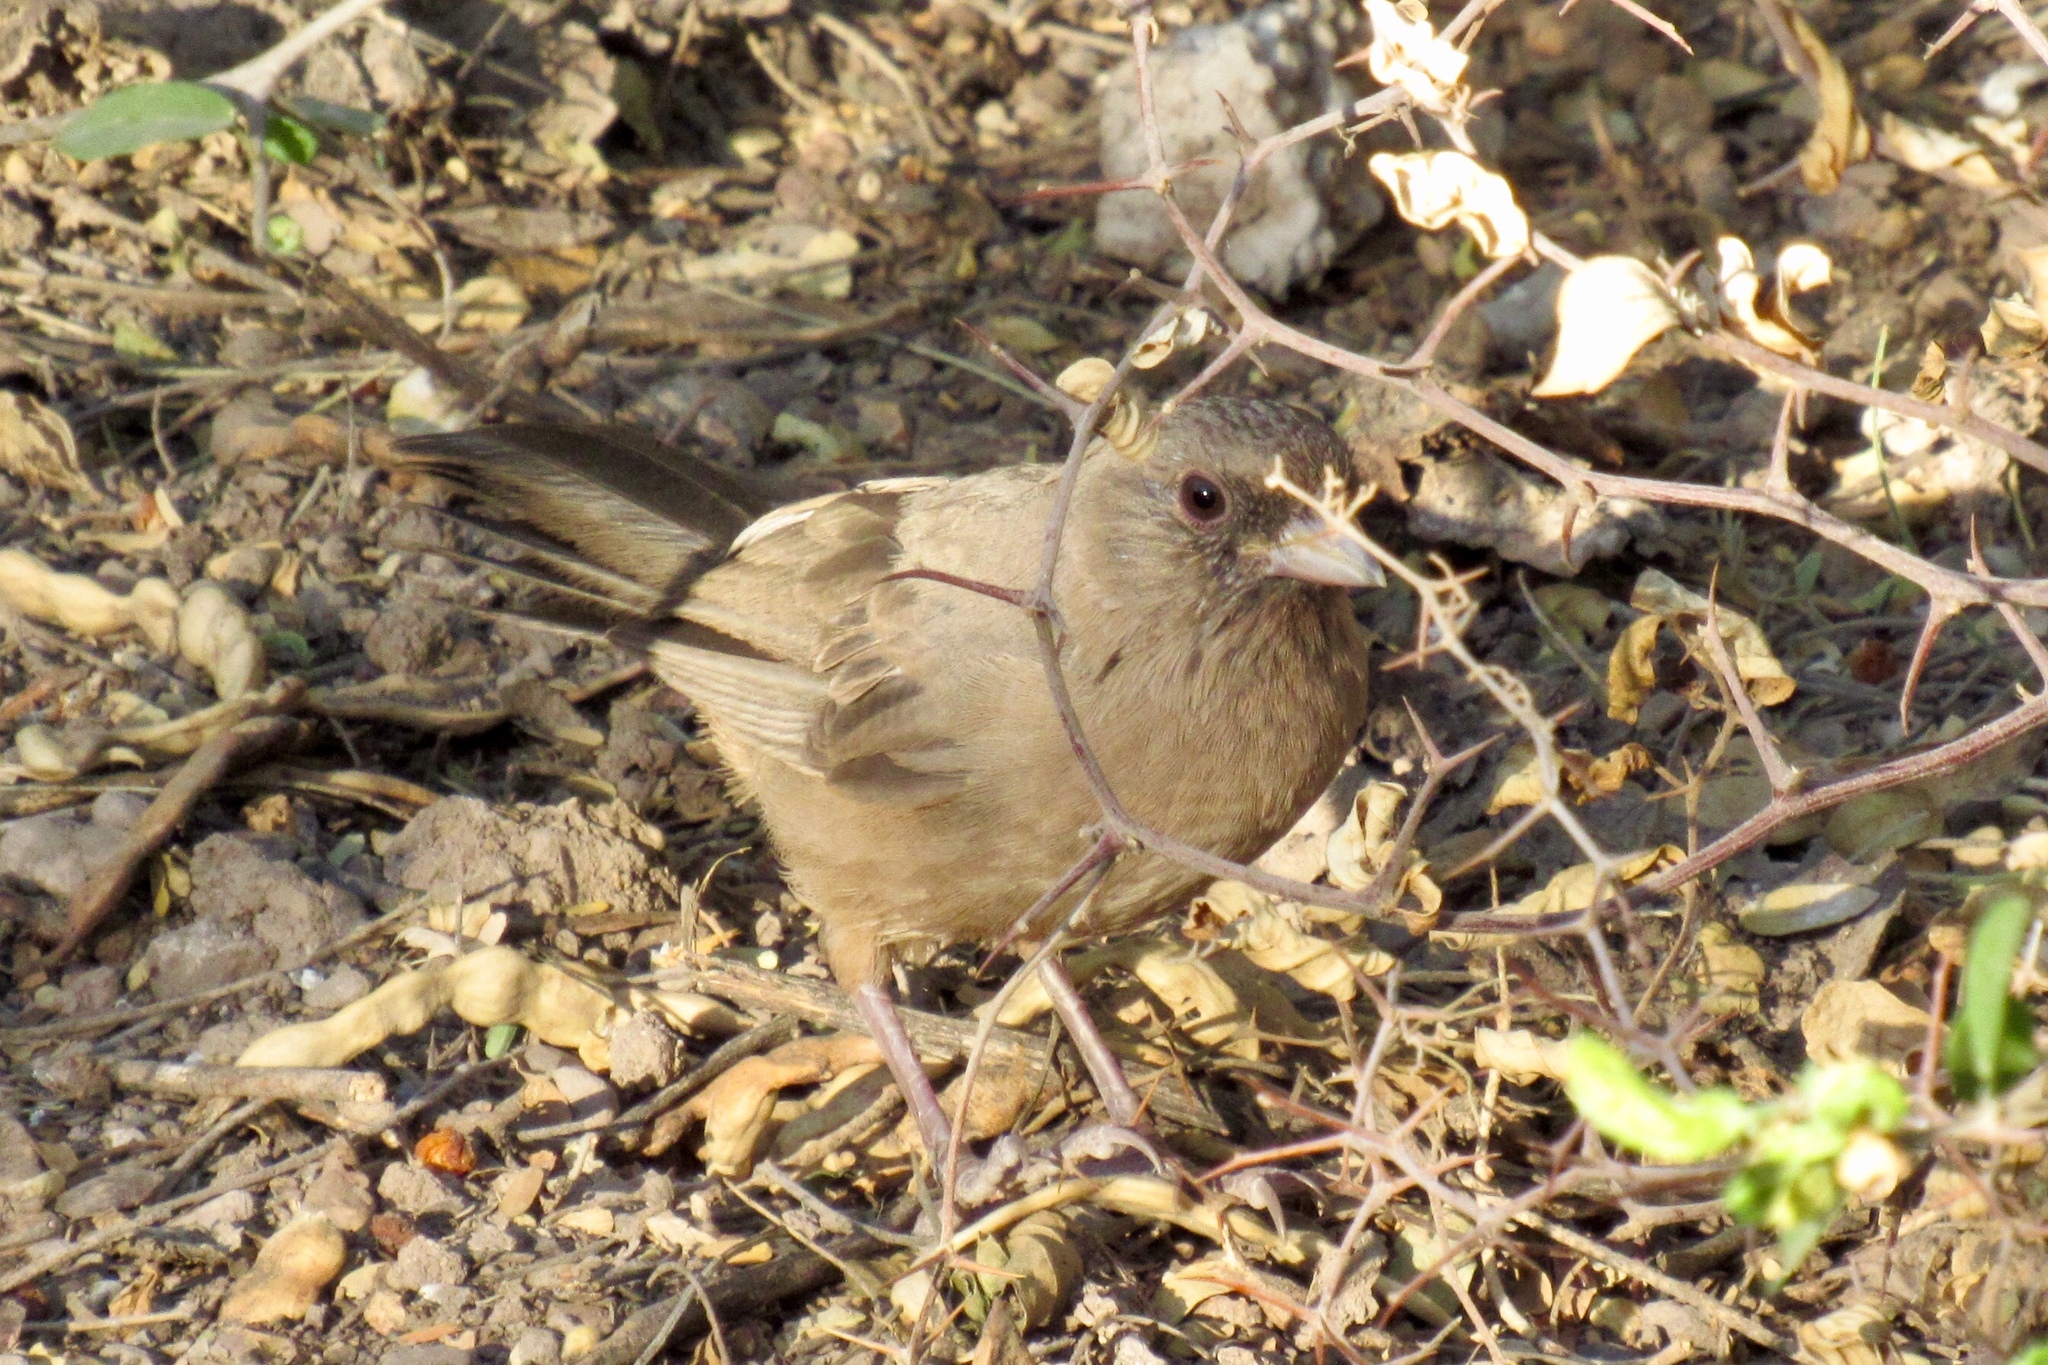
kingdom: Animalia
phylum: Chordata
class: Aves
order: Passeriformes
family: Passerellidae
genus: Melozone
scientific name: Melozone aberti
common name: Abert's towhee
